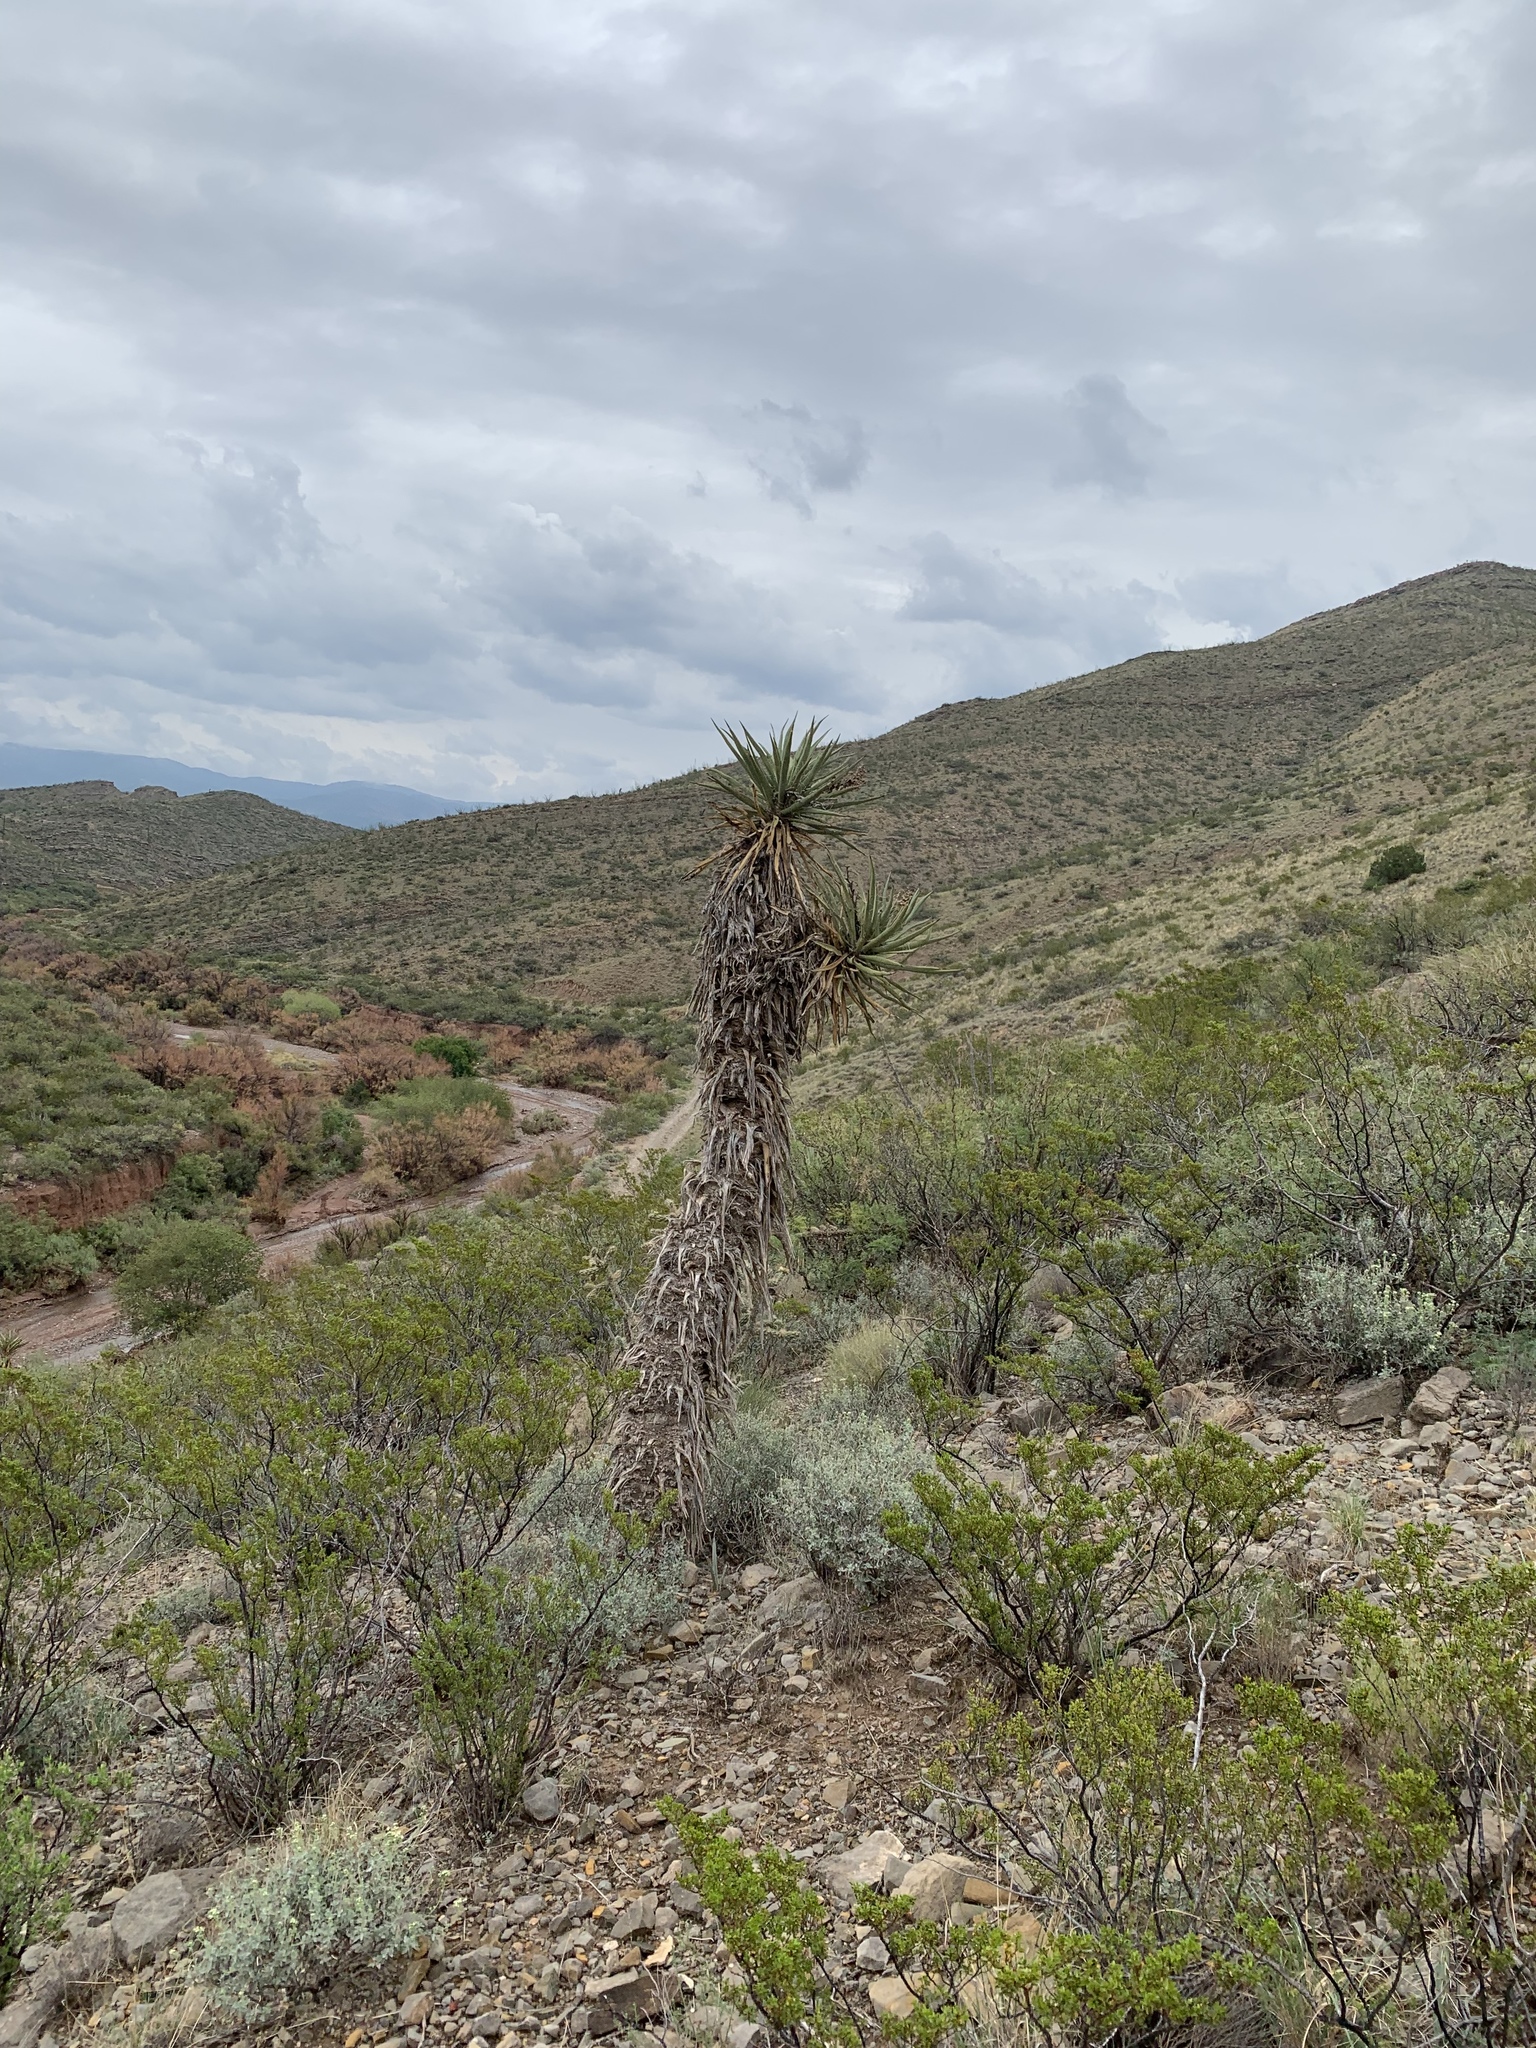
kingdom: Plantae
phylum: Tracheophyta
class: Liliopsida
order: Asparagales
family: Asparagaceae
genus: Yucca
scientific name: Yucca treculiana
